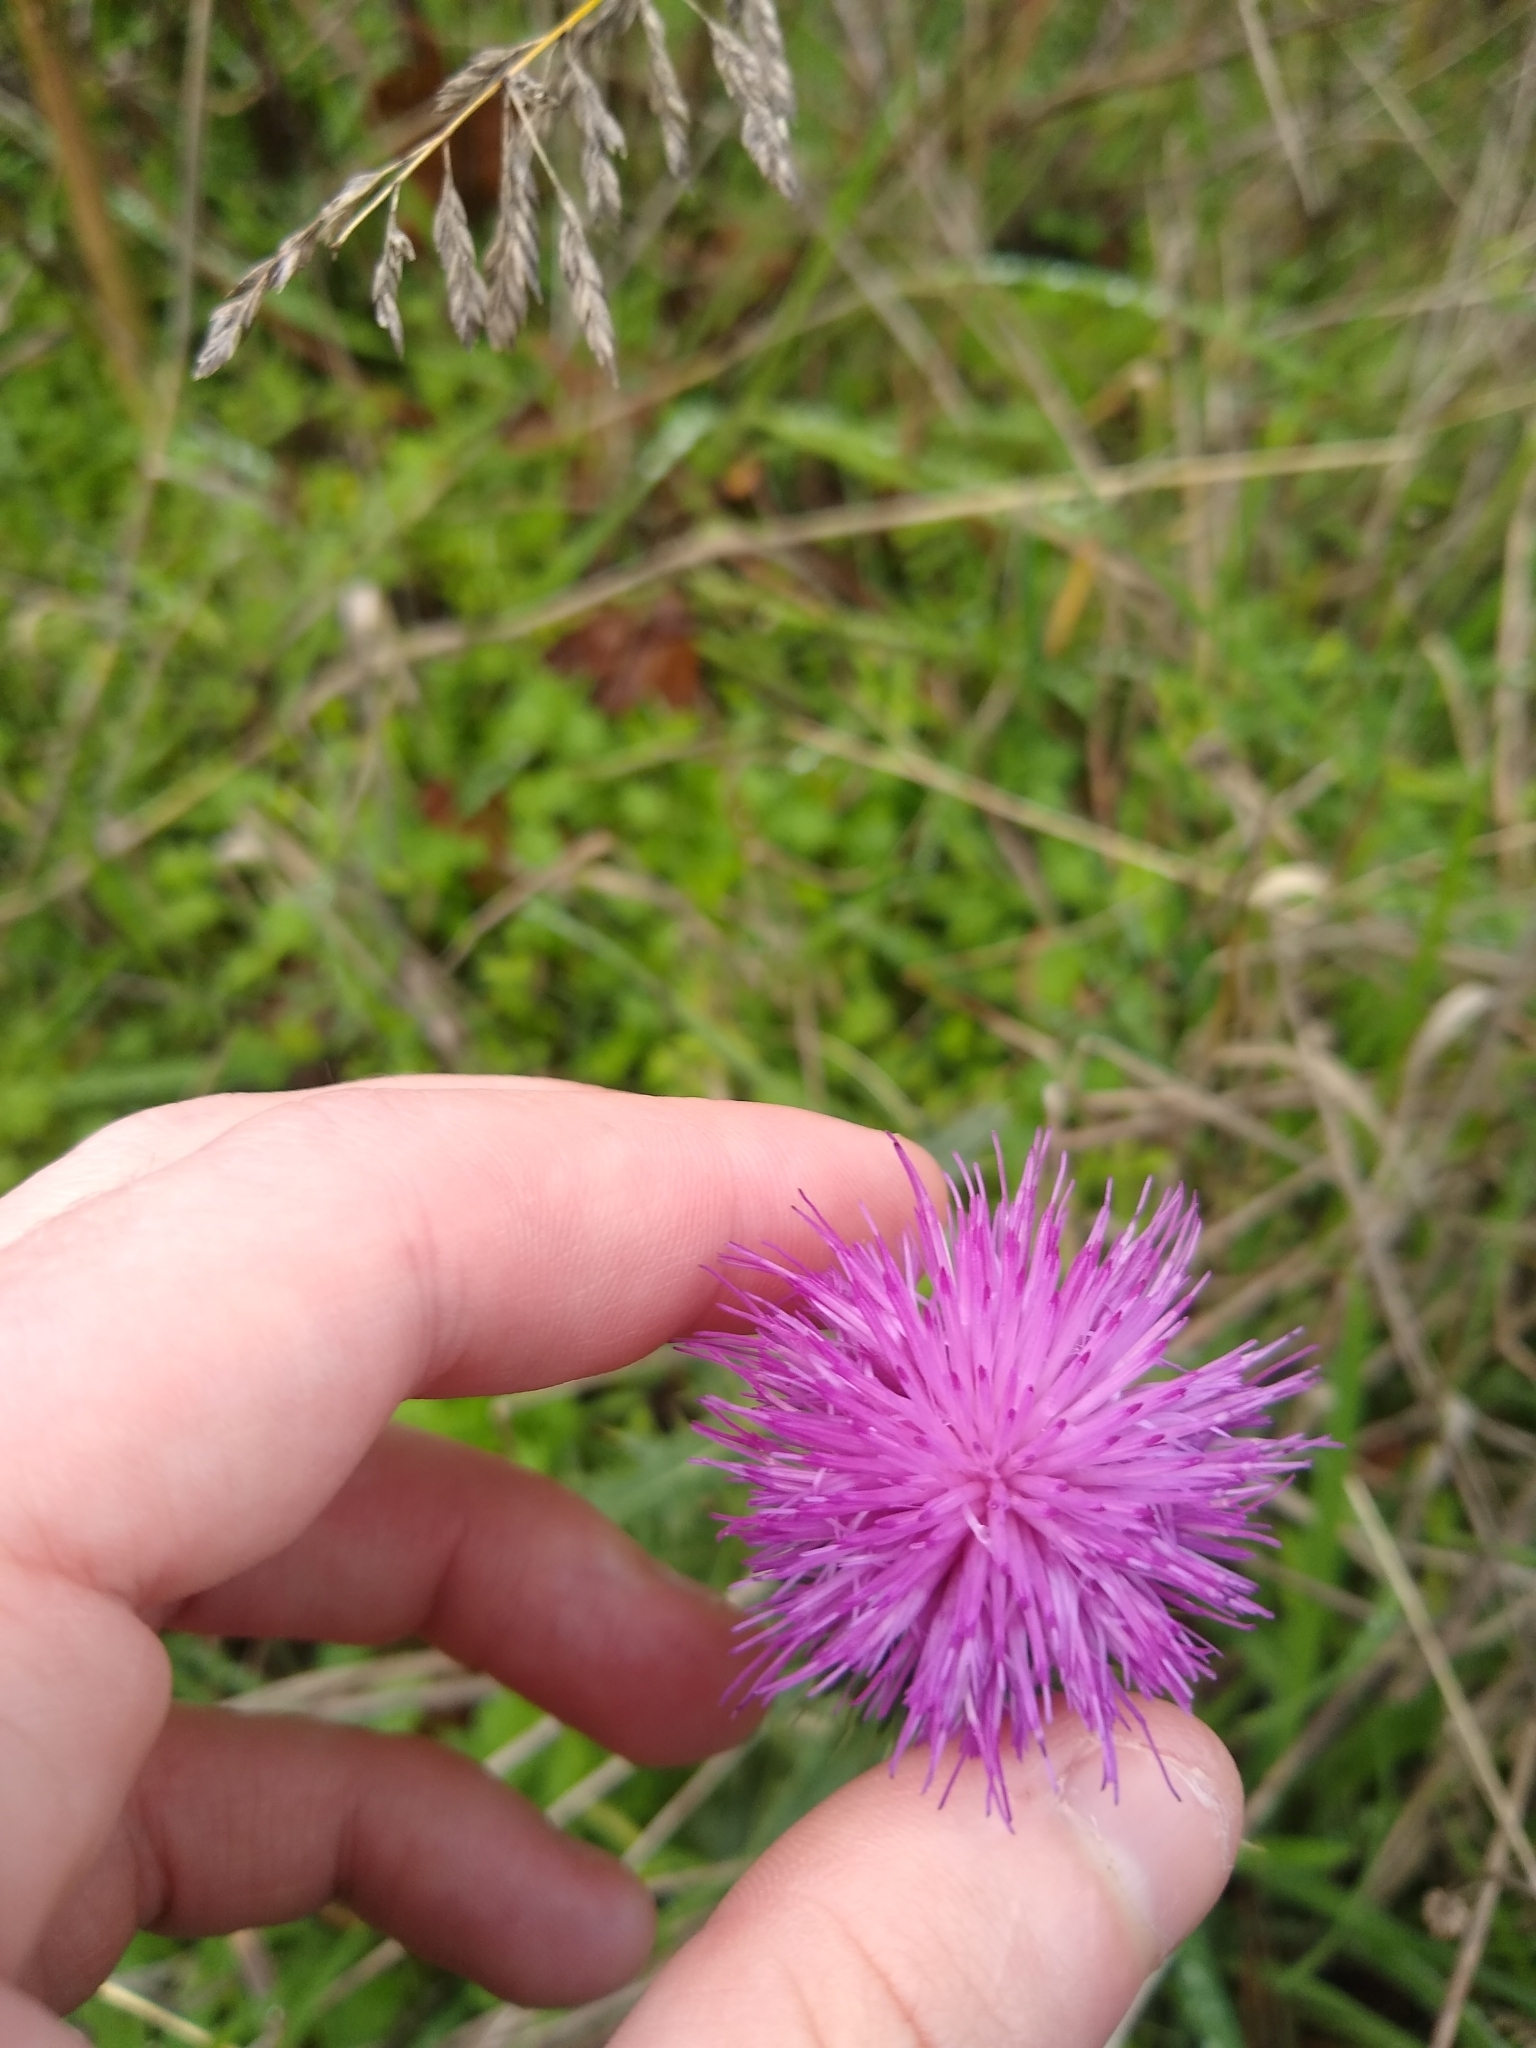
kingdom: Plantae
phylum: Tracheophyta
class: Magnoliopsida
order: Asterales
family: Asteraceae
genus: Cirsium
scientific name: Cirsium vulgare
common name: Bull thistle
